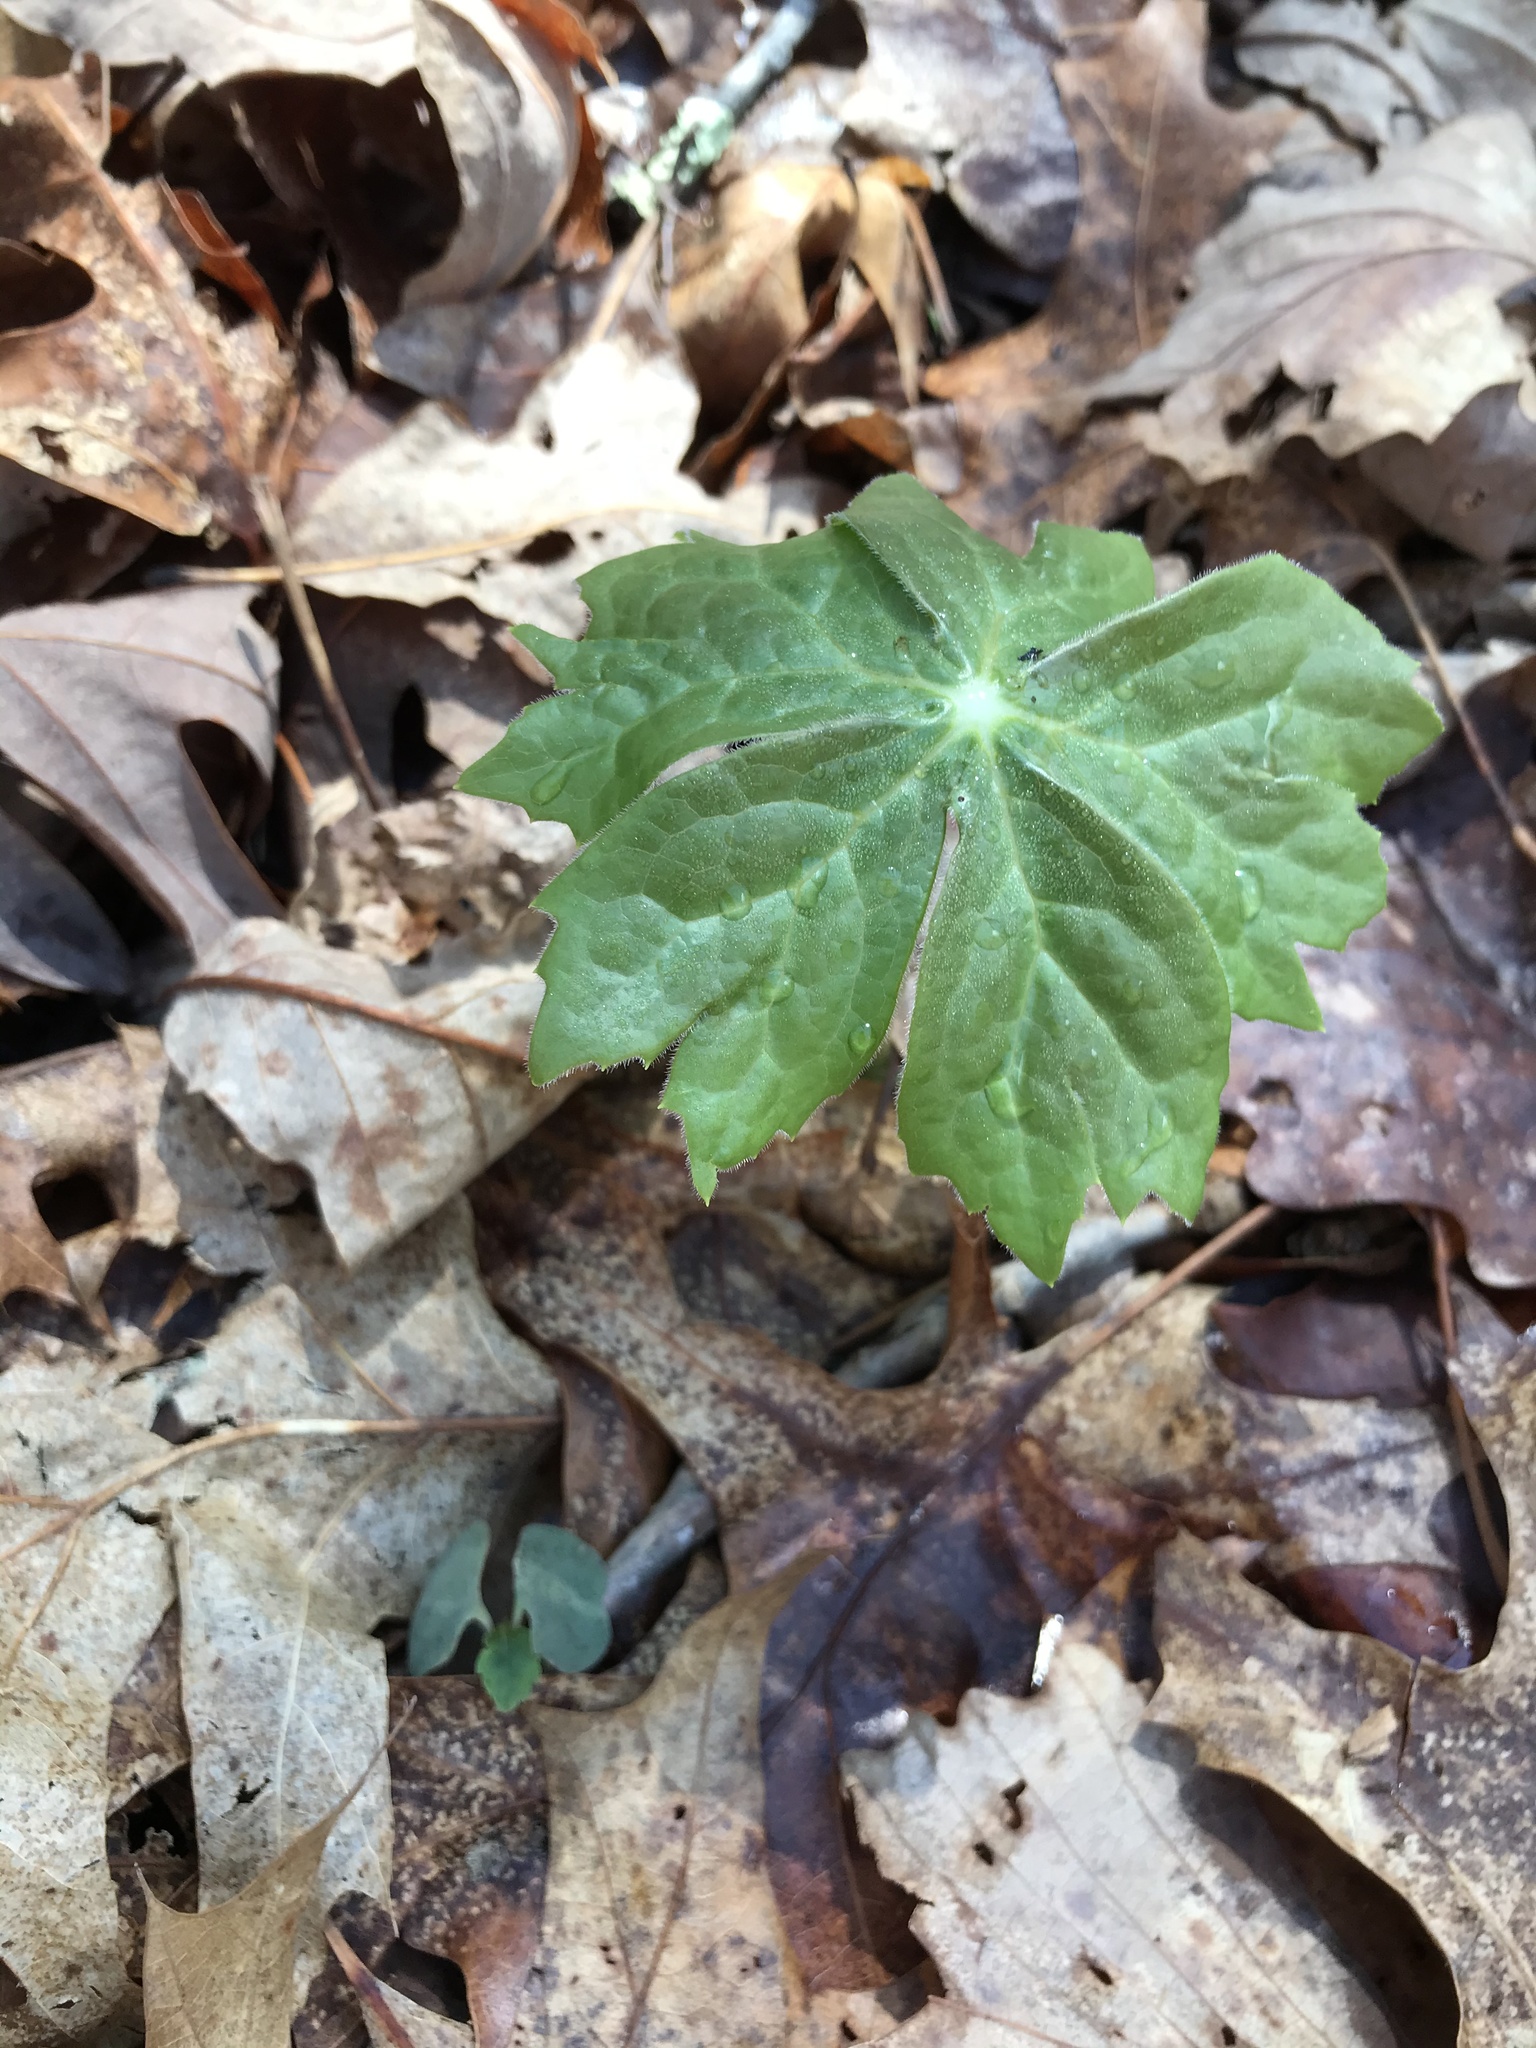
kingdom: Plantae
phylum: Tracheophyta
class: Magnoliopsida
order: Ranunculales
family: Berberidaceae
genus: Podophyllum
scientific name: Podophyllum peltatum
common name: Wild mandrake
